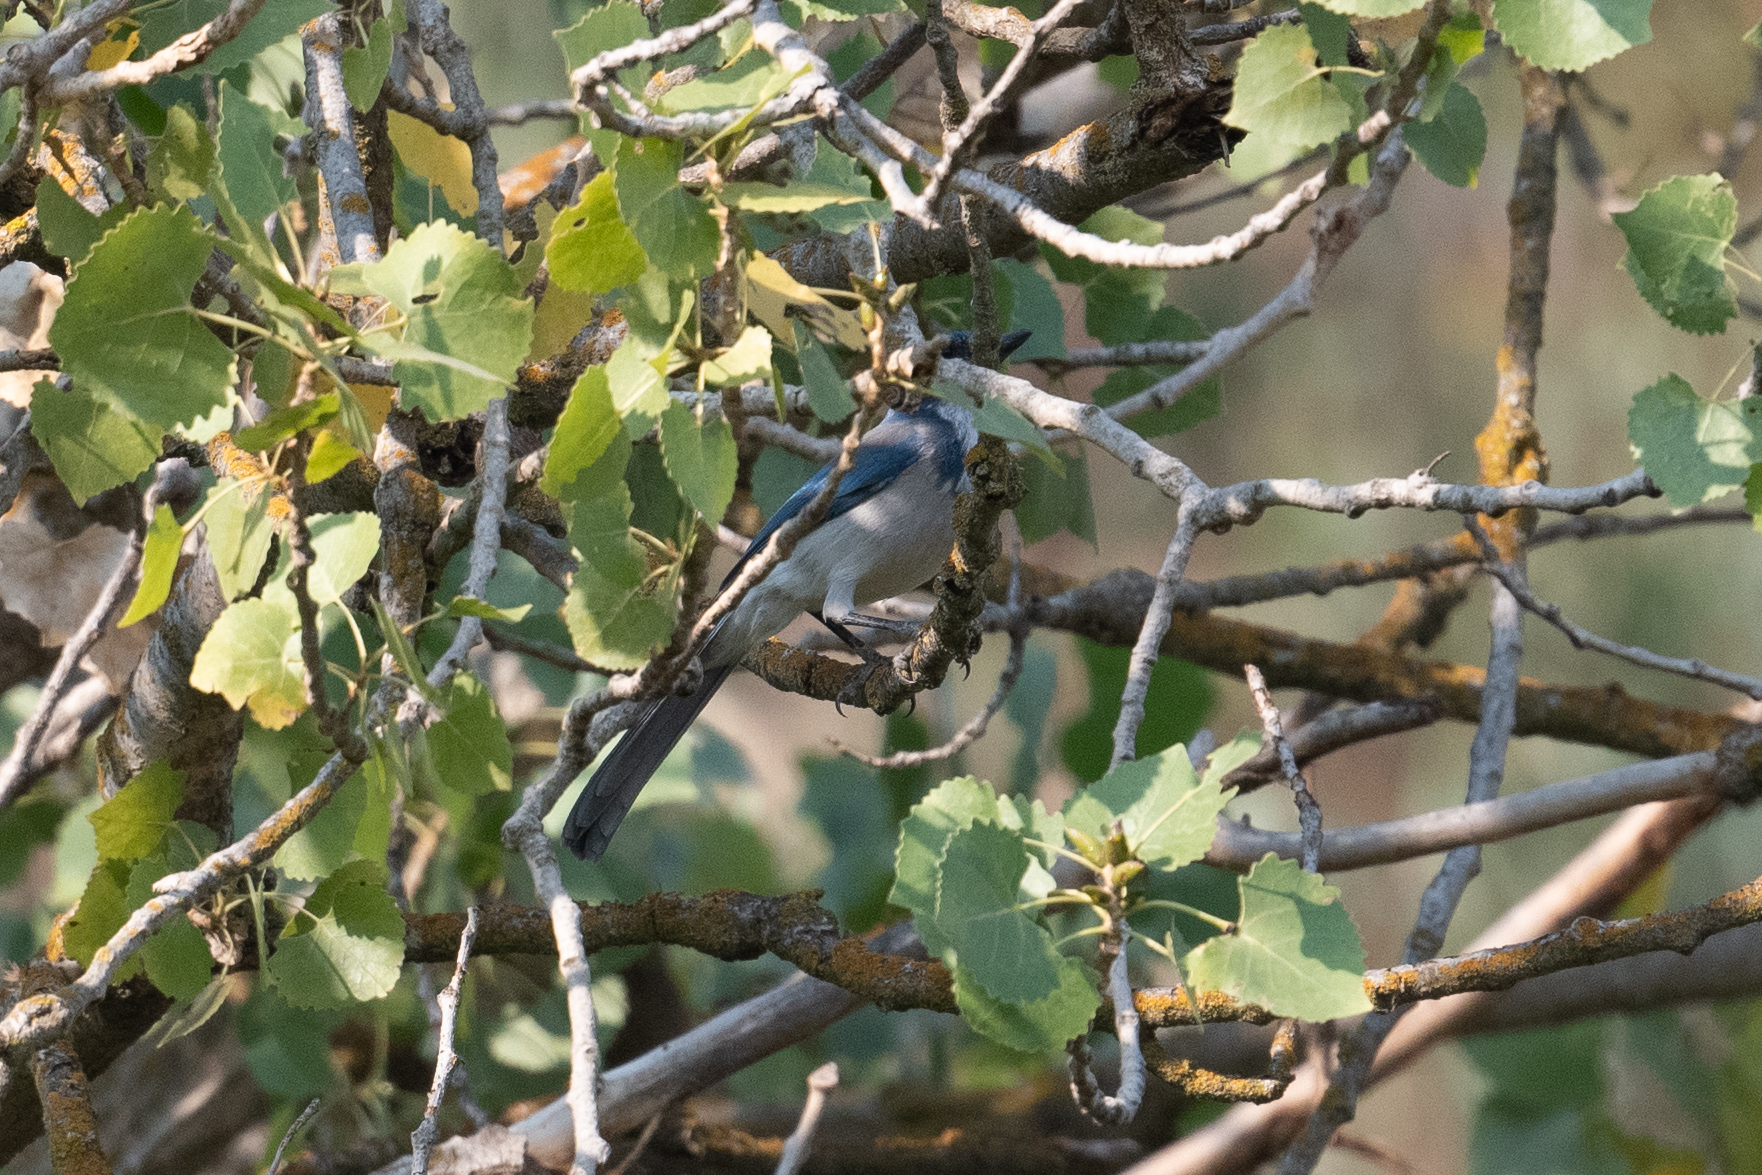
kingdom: Animalia
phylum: Chordata
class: Aves
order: Passeriformes
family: Corvidae
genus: Aphelocoma
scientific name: Aphelocoma californica
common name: California scrub-jay
